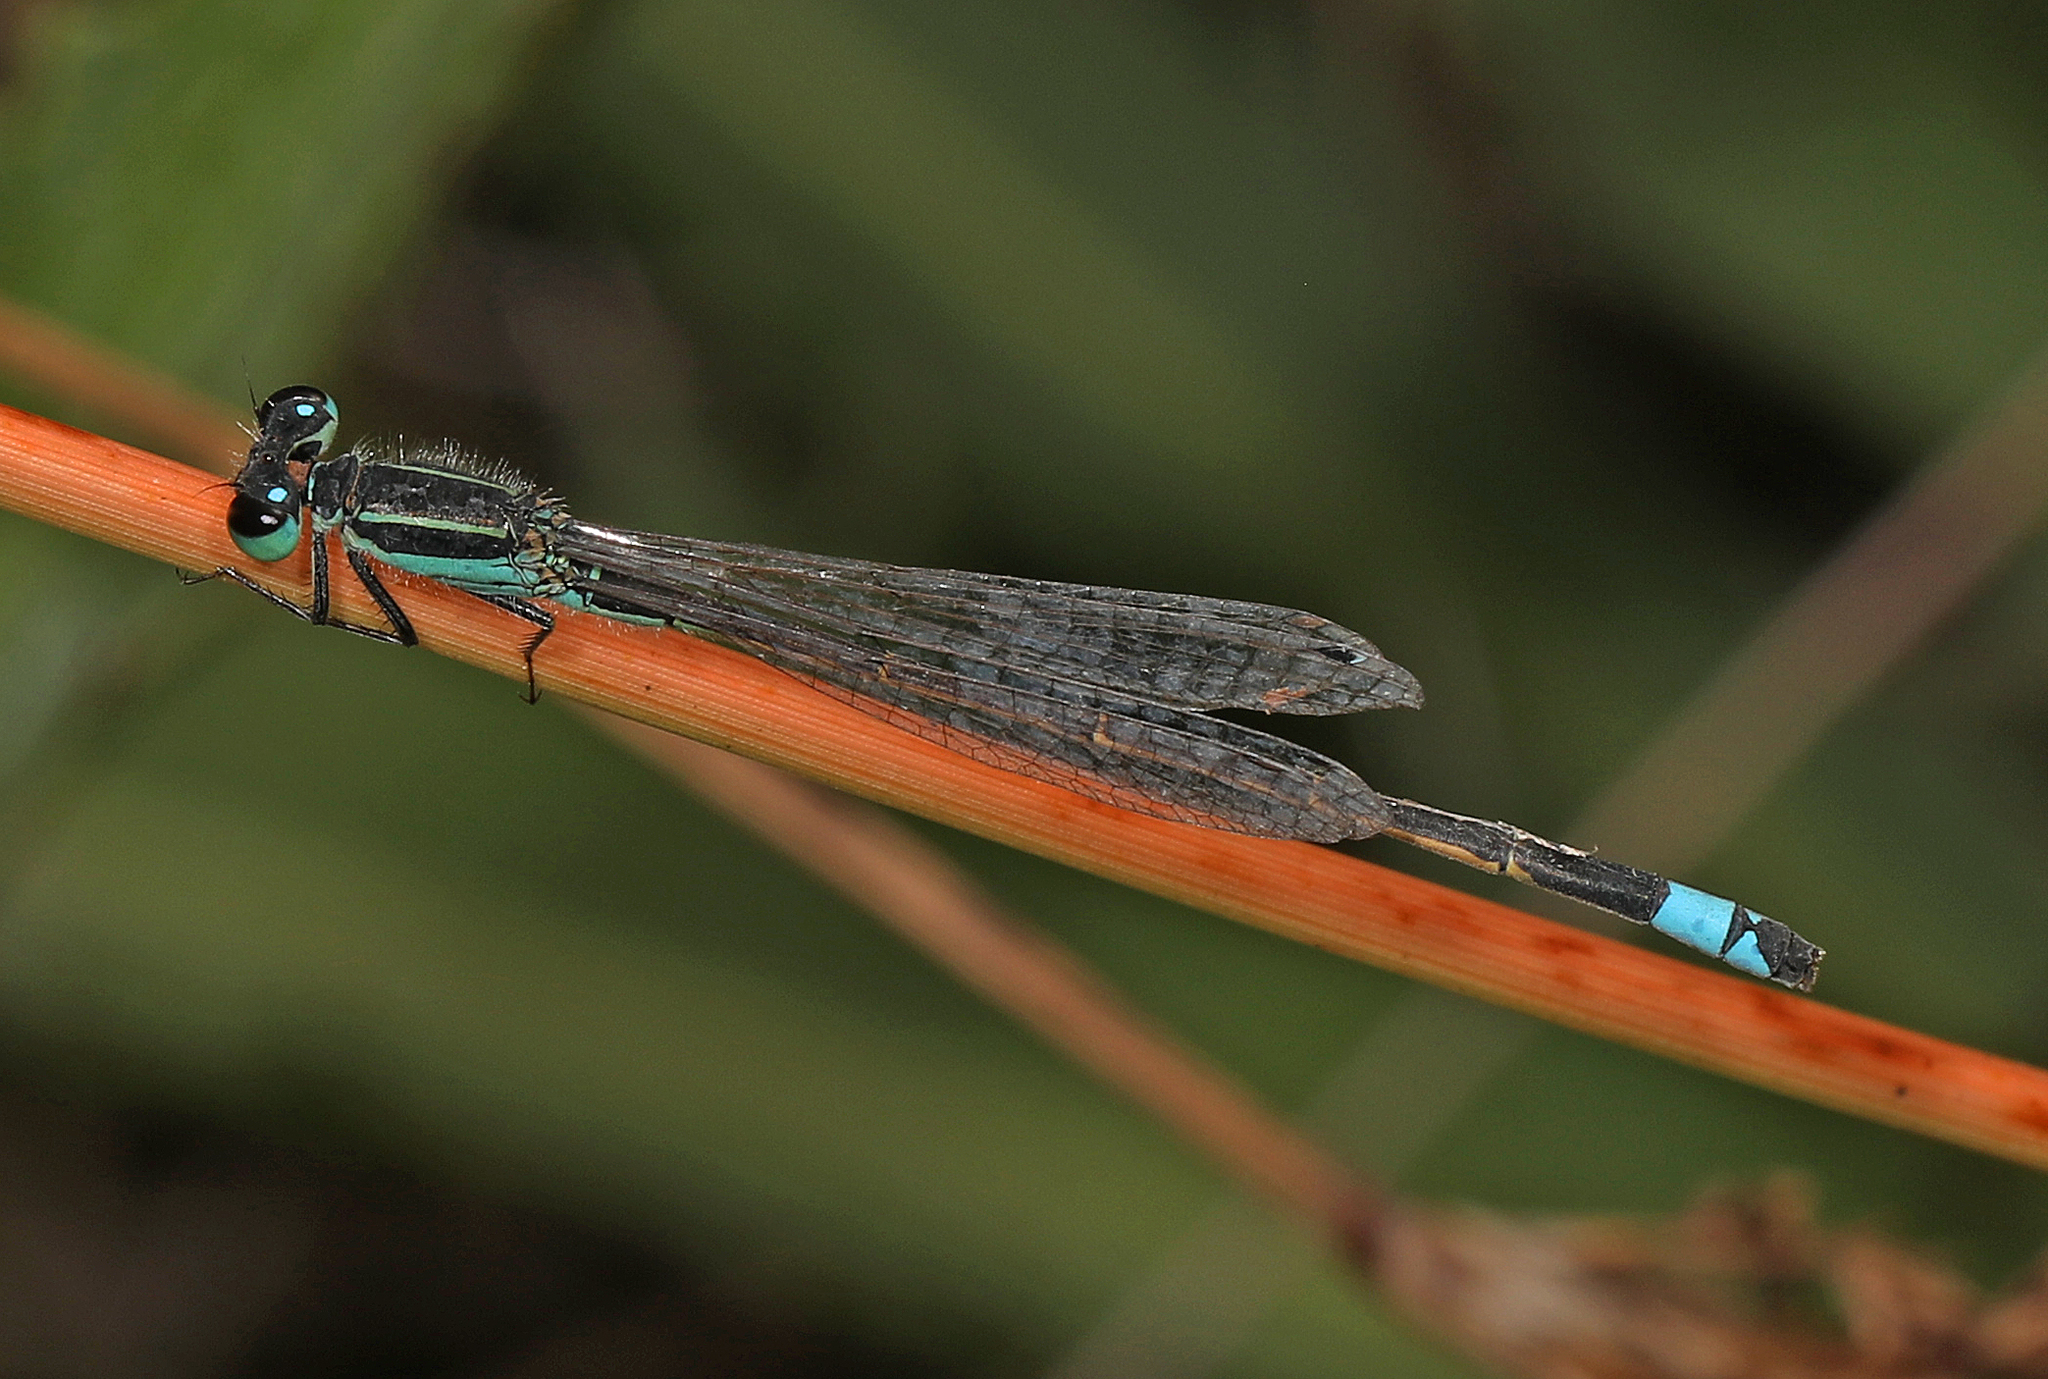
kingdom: Animalia
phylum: Arthropoda
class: Insecta
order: Odonata
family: Coenagrionidae
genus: Ischnura
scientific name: Ischnura ramburii
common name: Rambur's forktail
